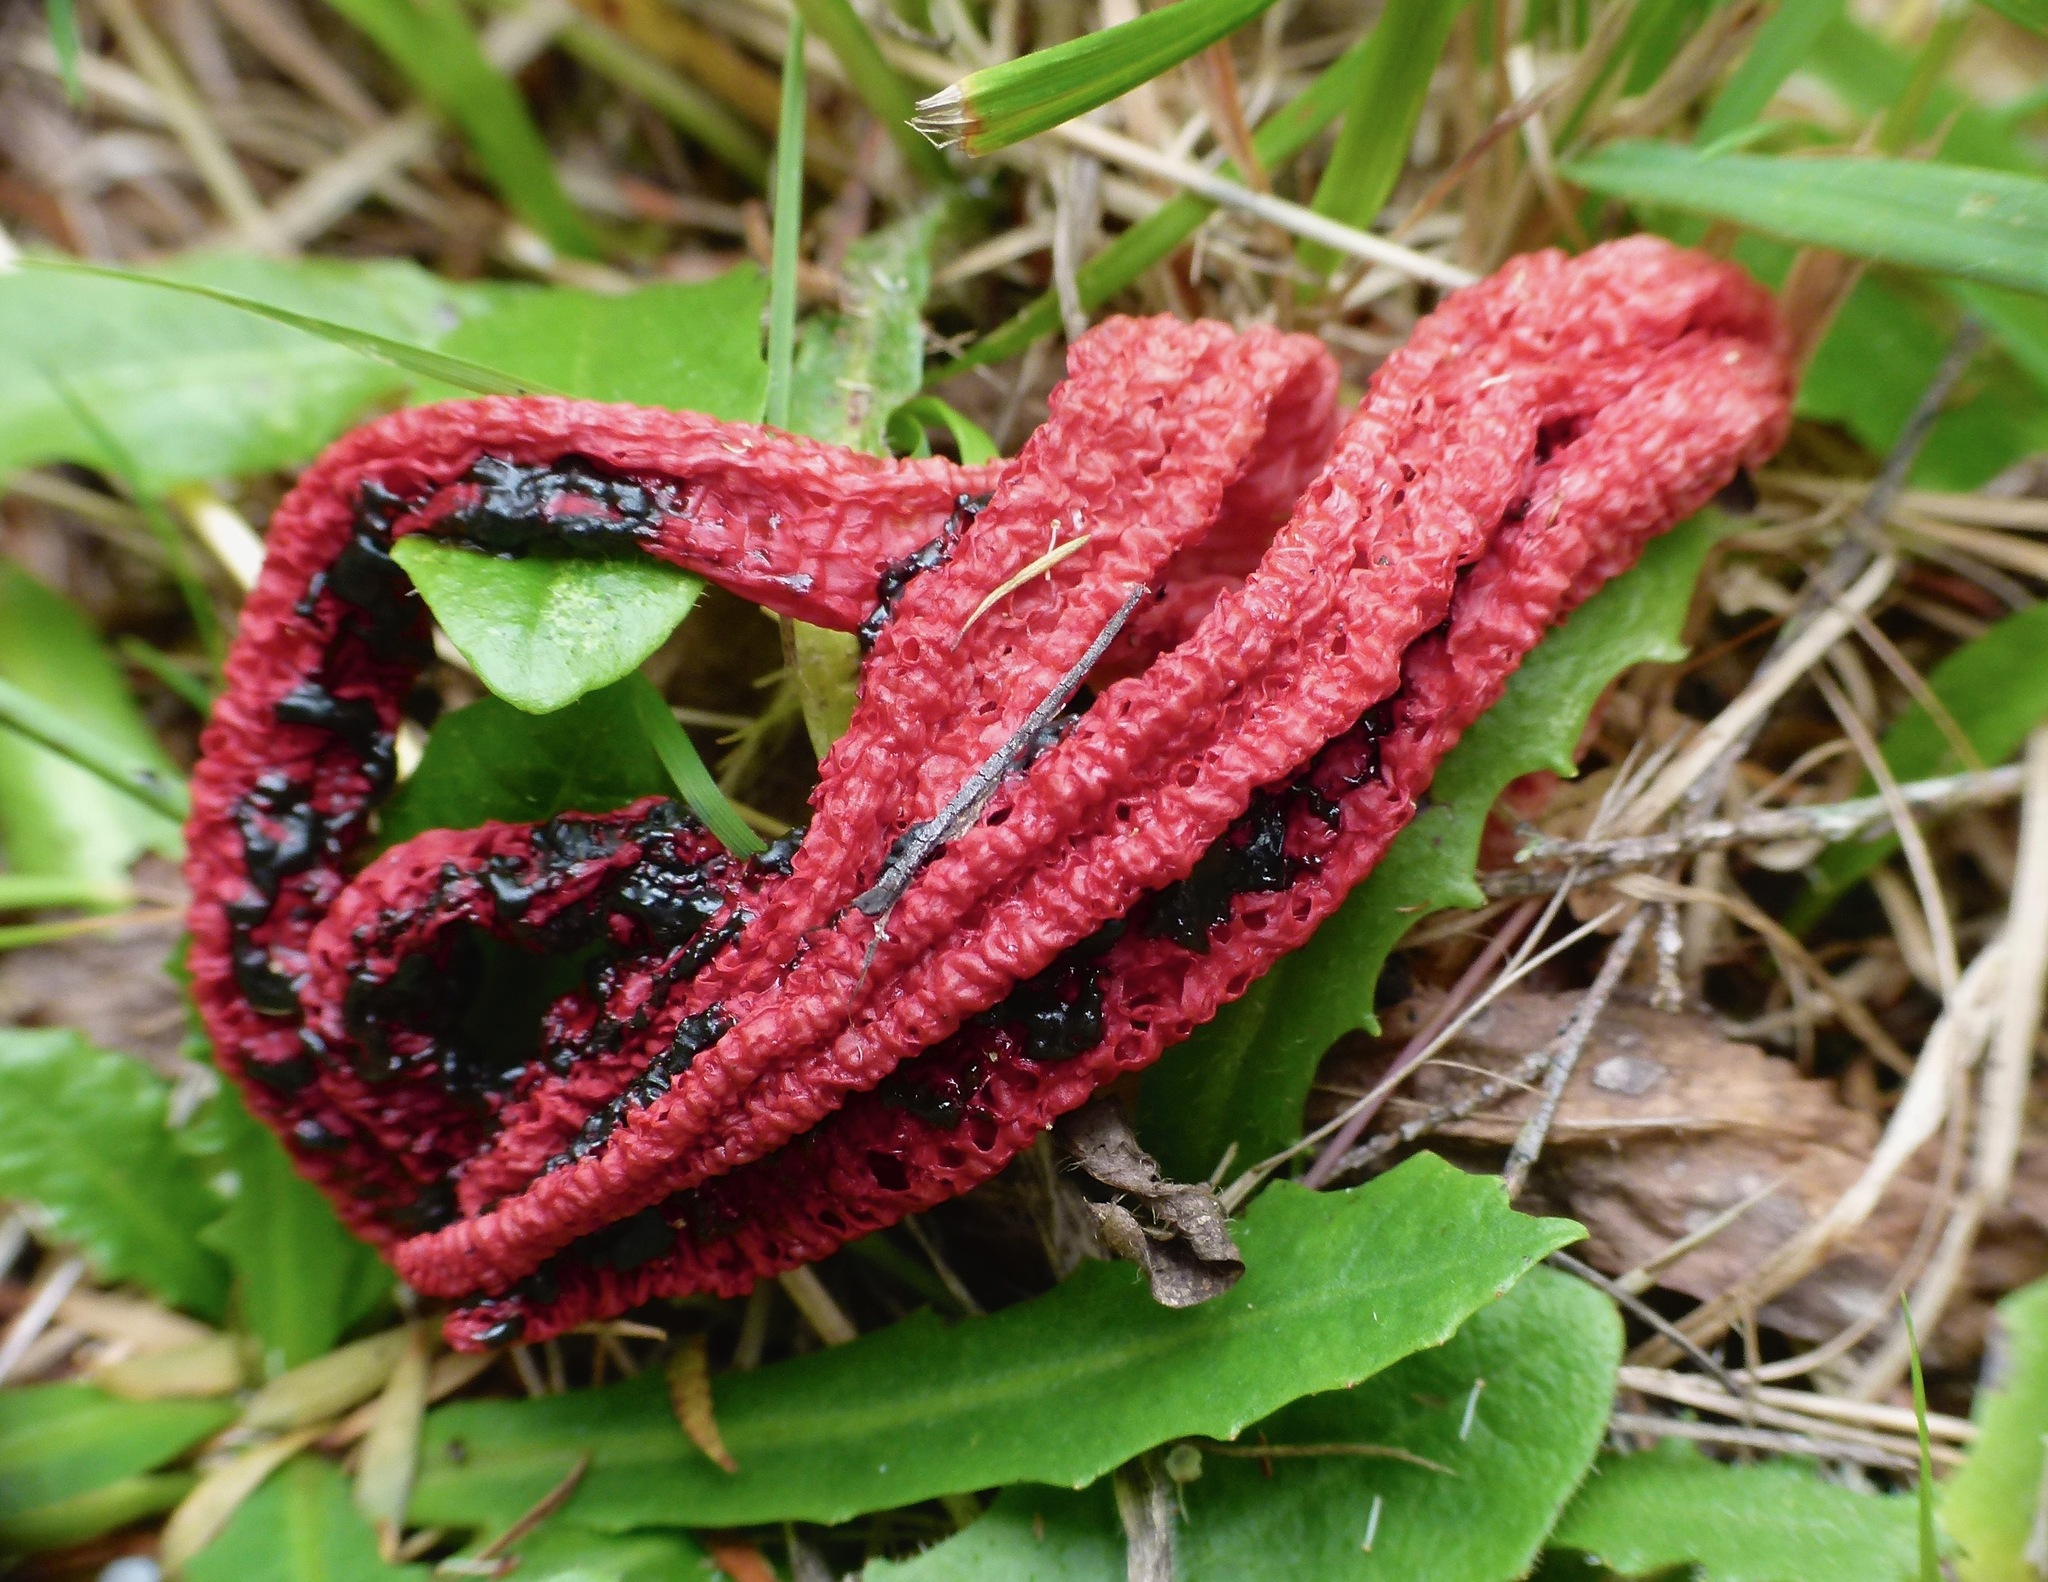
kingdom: Fungi
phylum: Basidiomycota
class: Agaricomycetes
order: Phallales
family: Phallaceae
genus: Clathrus
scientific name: Clathrus archeri
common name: Devil's fingers
